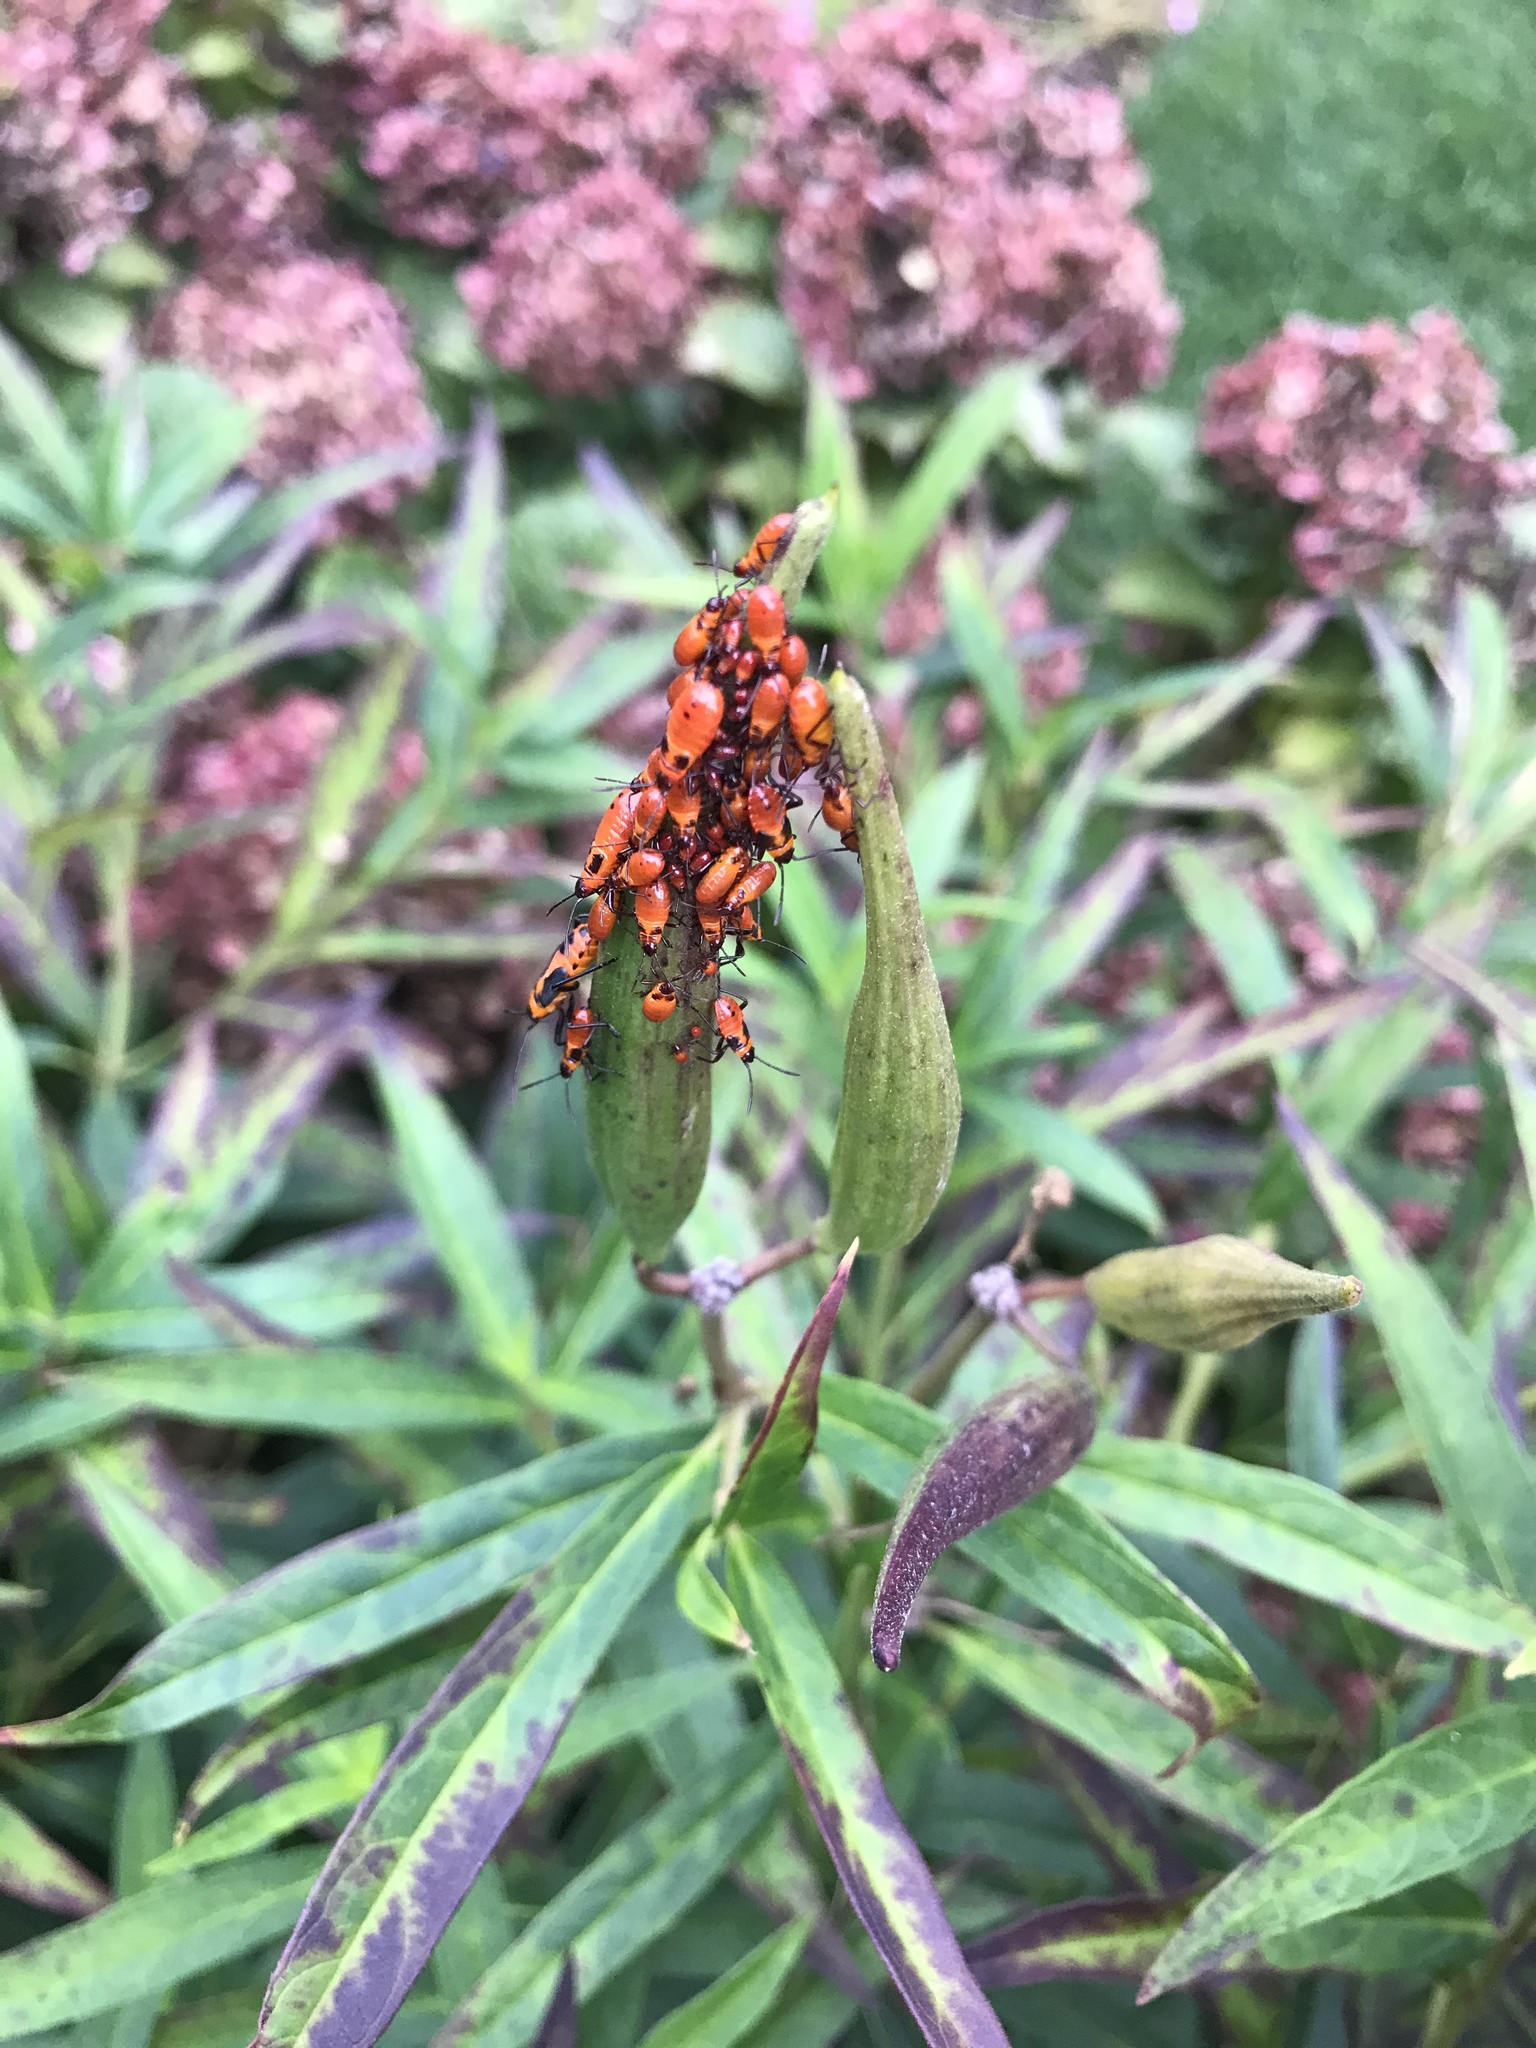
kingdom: Animalia
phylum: Arthropoda
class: Insecta
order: Hemiptera
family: Lygaeidae
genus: Oncopeltus
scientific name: Oncopeltus fasciatus
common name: Large milkweed bug
